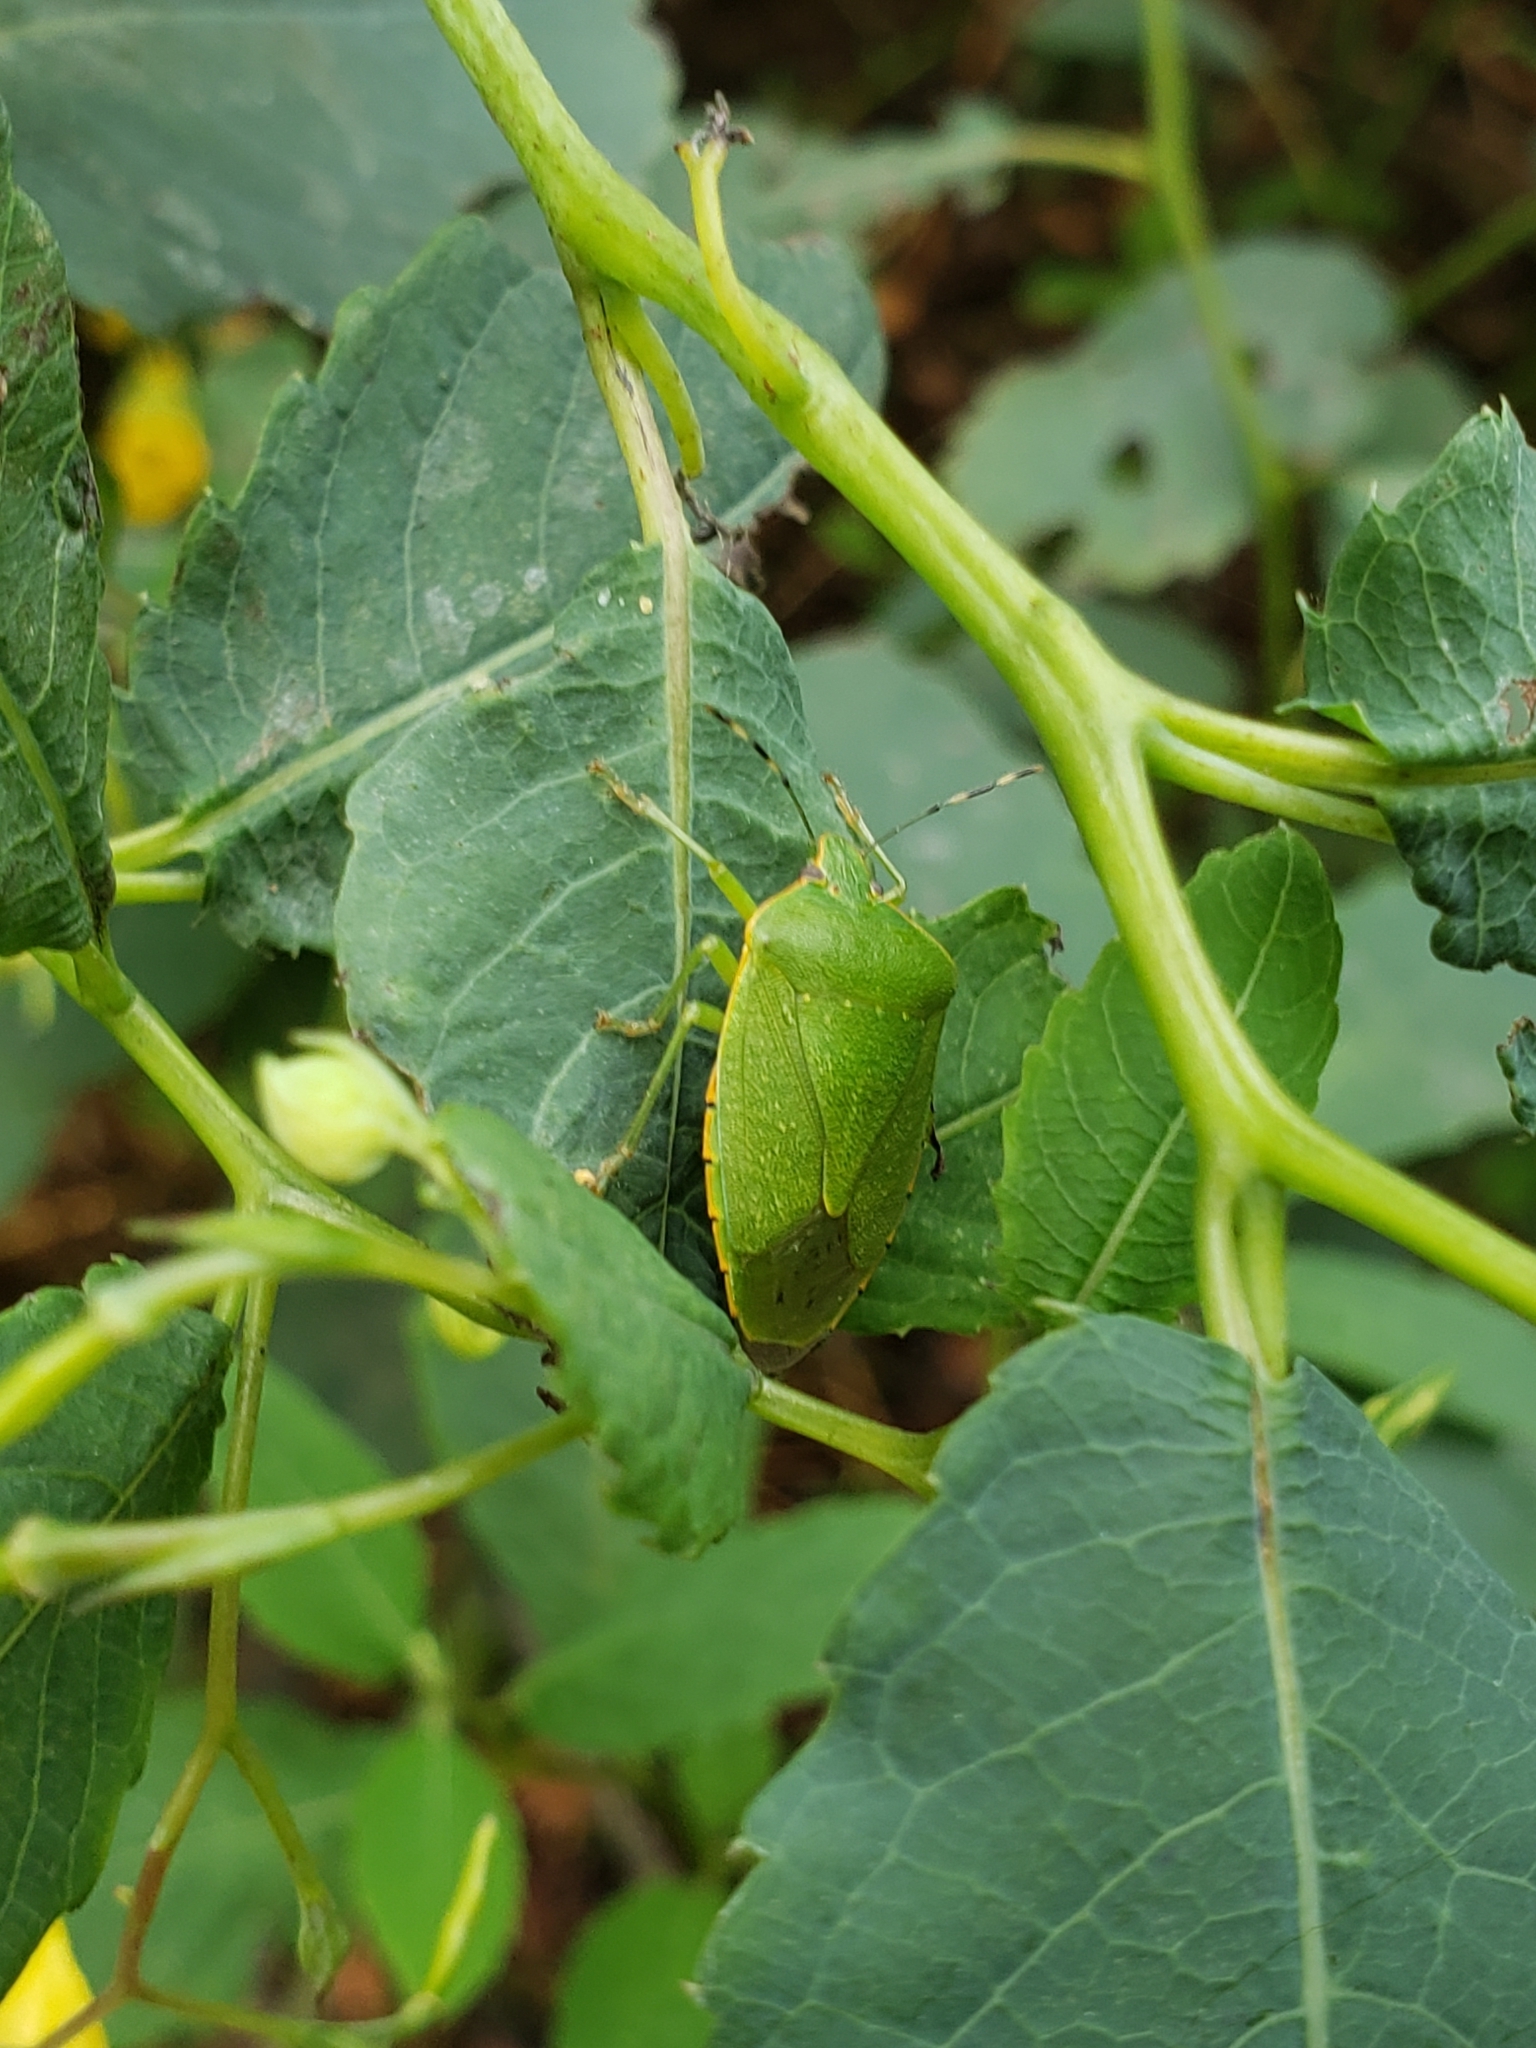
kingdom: Animalia
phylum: Arthropoda
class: Insecta
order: Hemiptera
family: Pentatomidae
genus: Chinavia
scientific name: Chinavia hilaris
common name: Green stink bug
